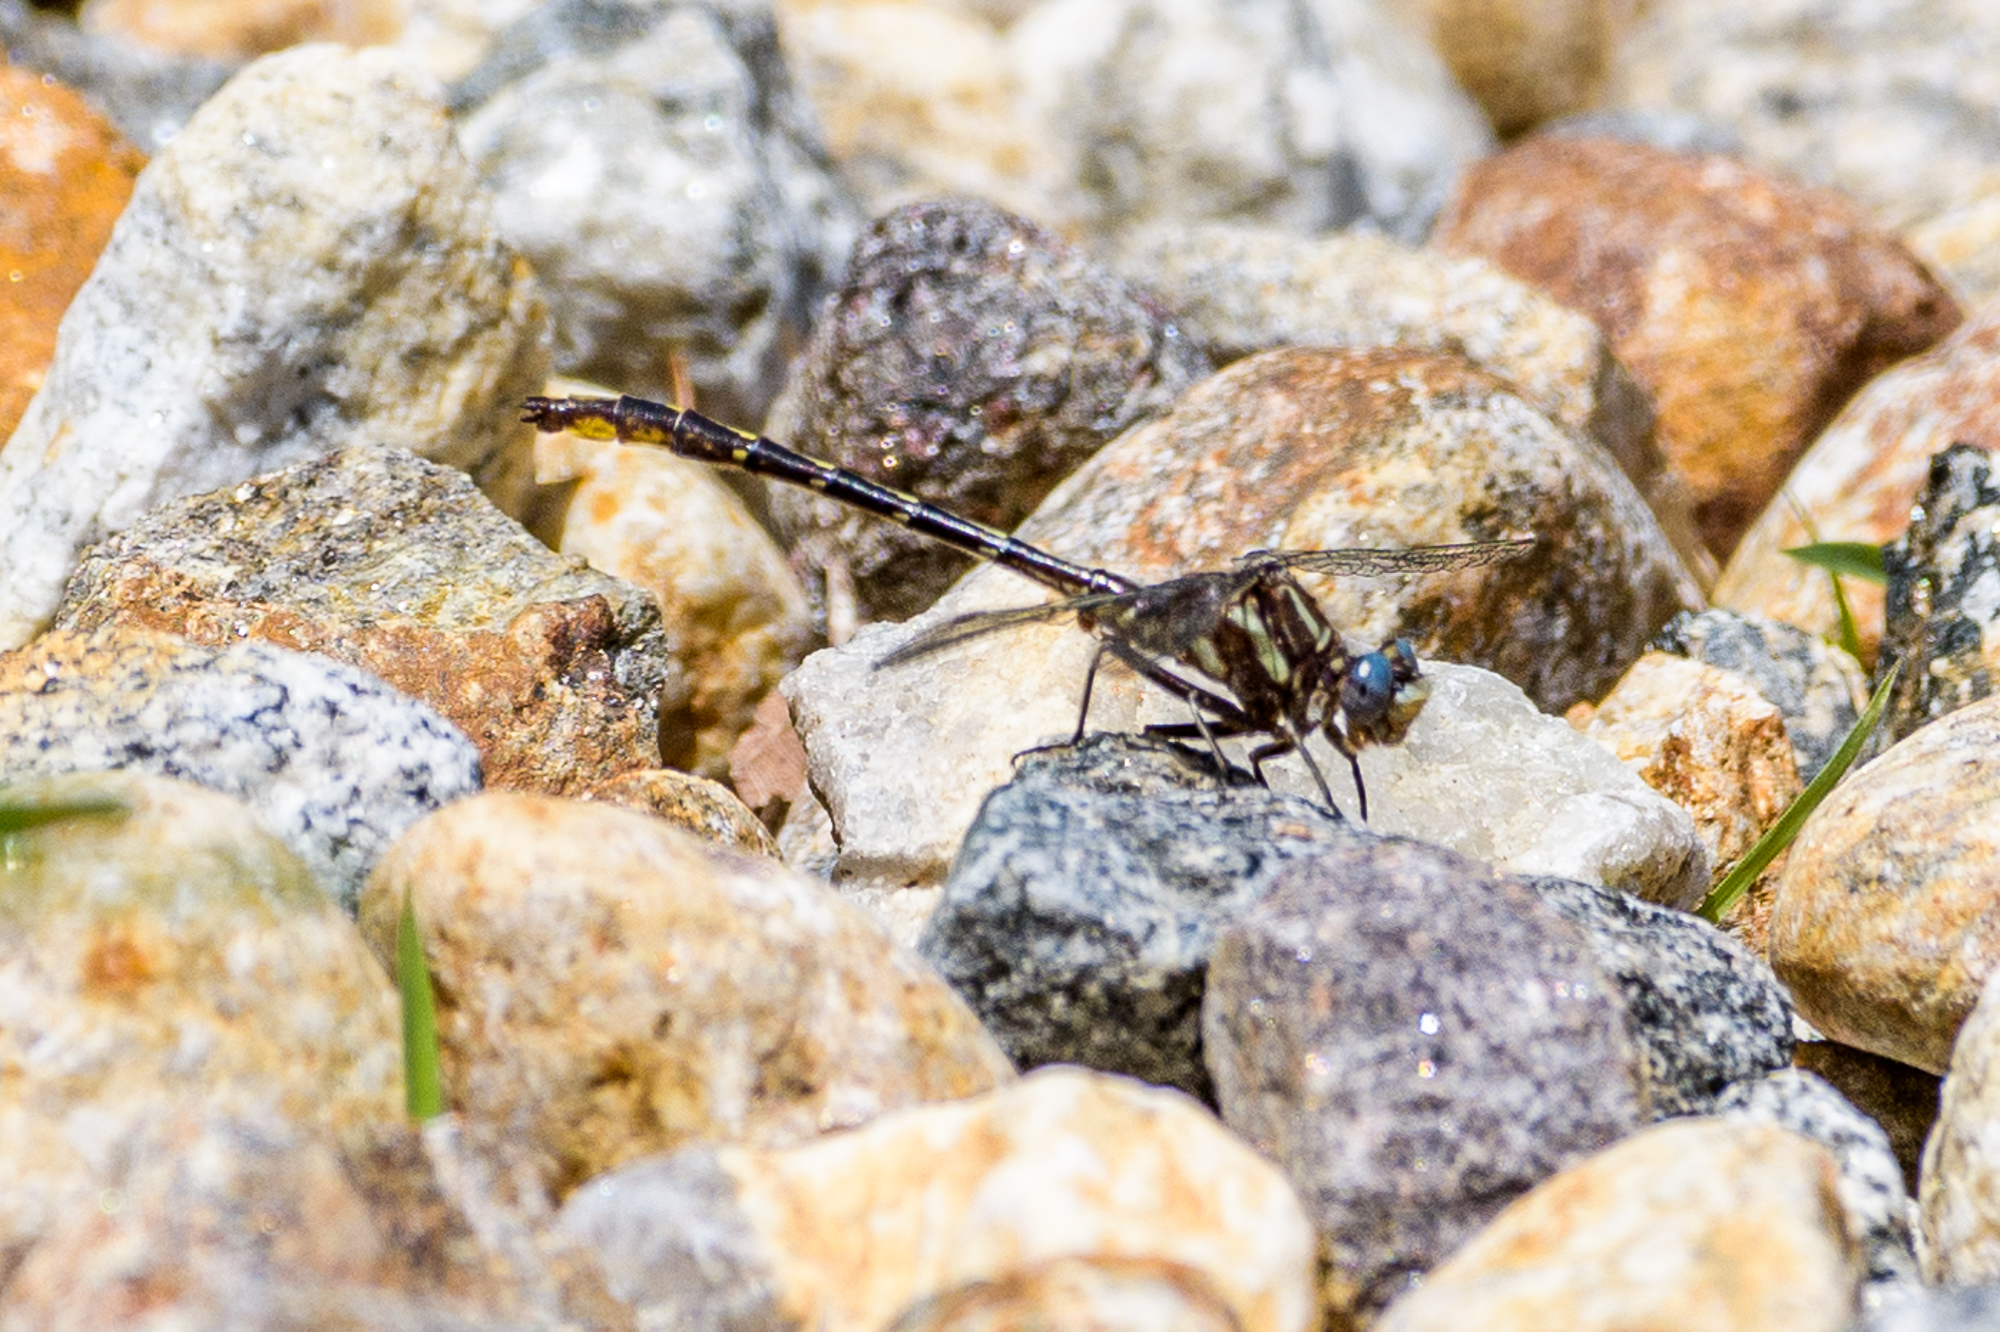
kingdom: Animalia
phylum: Arthropoda
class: Insecta
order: Odonata
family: Gomphidae
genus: Phanogomphus
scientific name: Phanogomphus exilis
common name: Lancet clubtail
